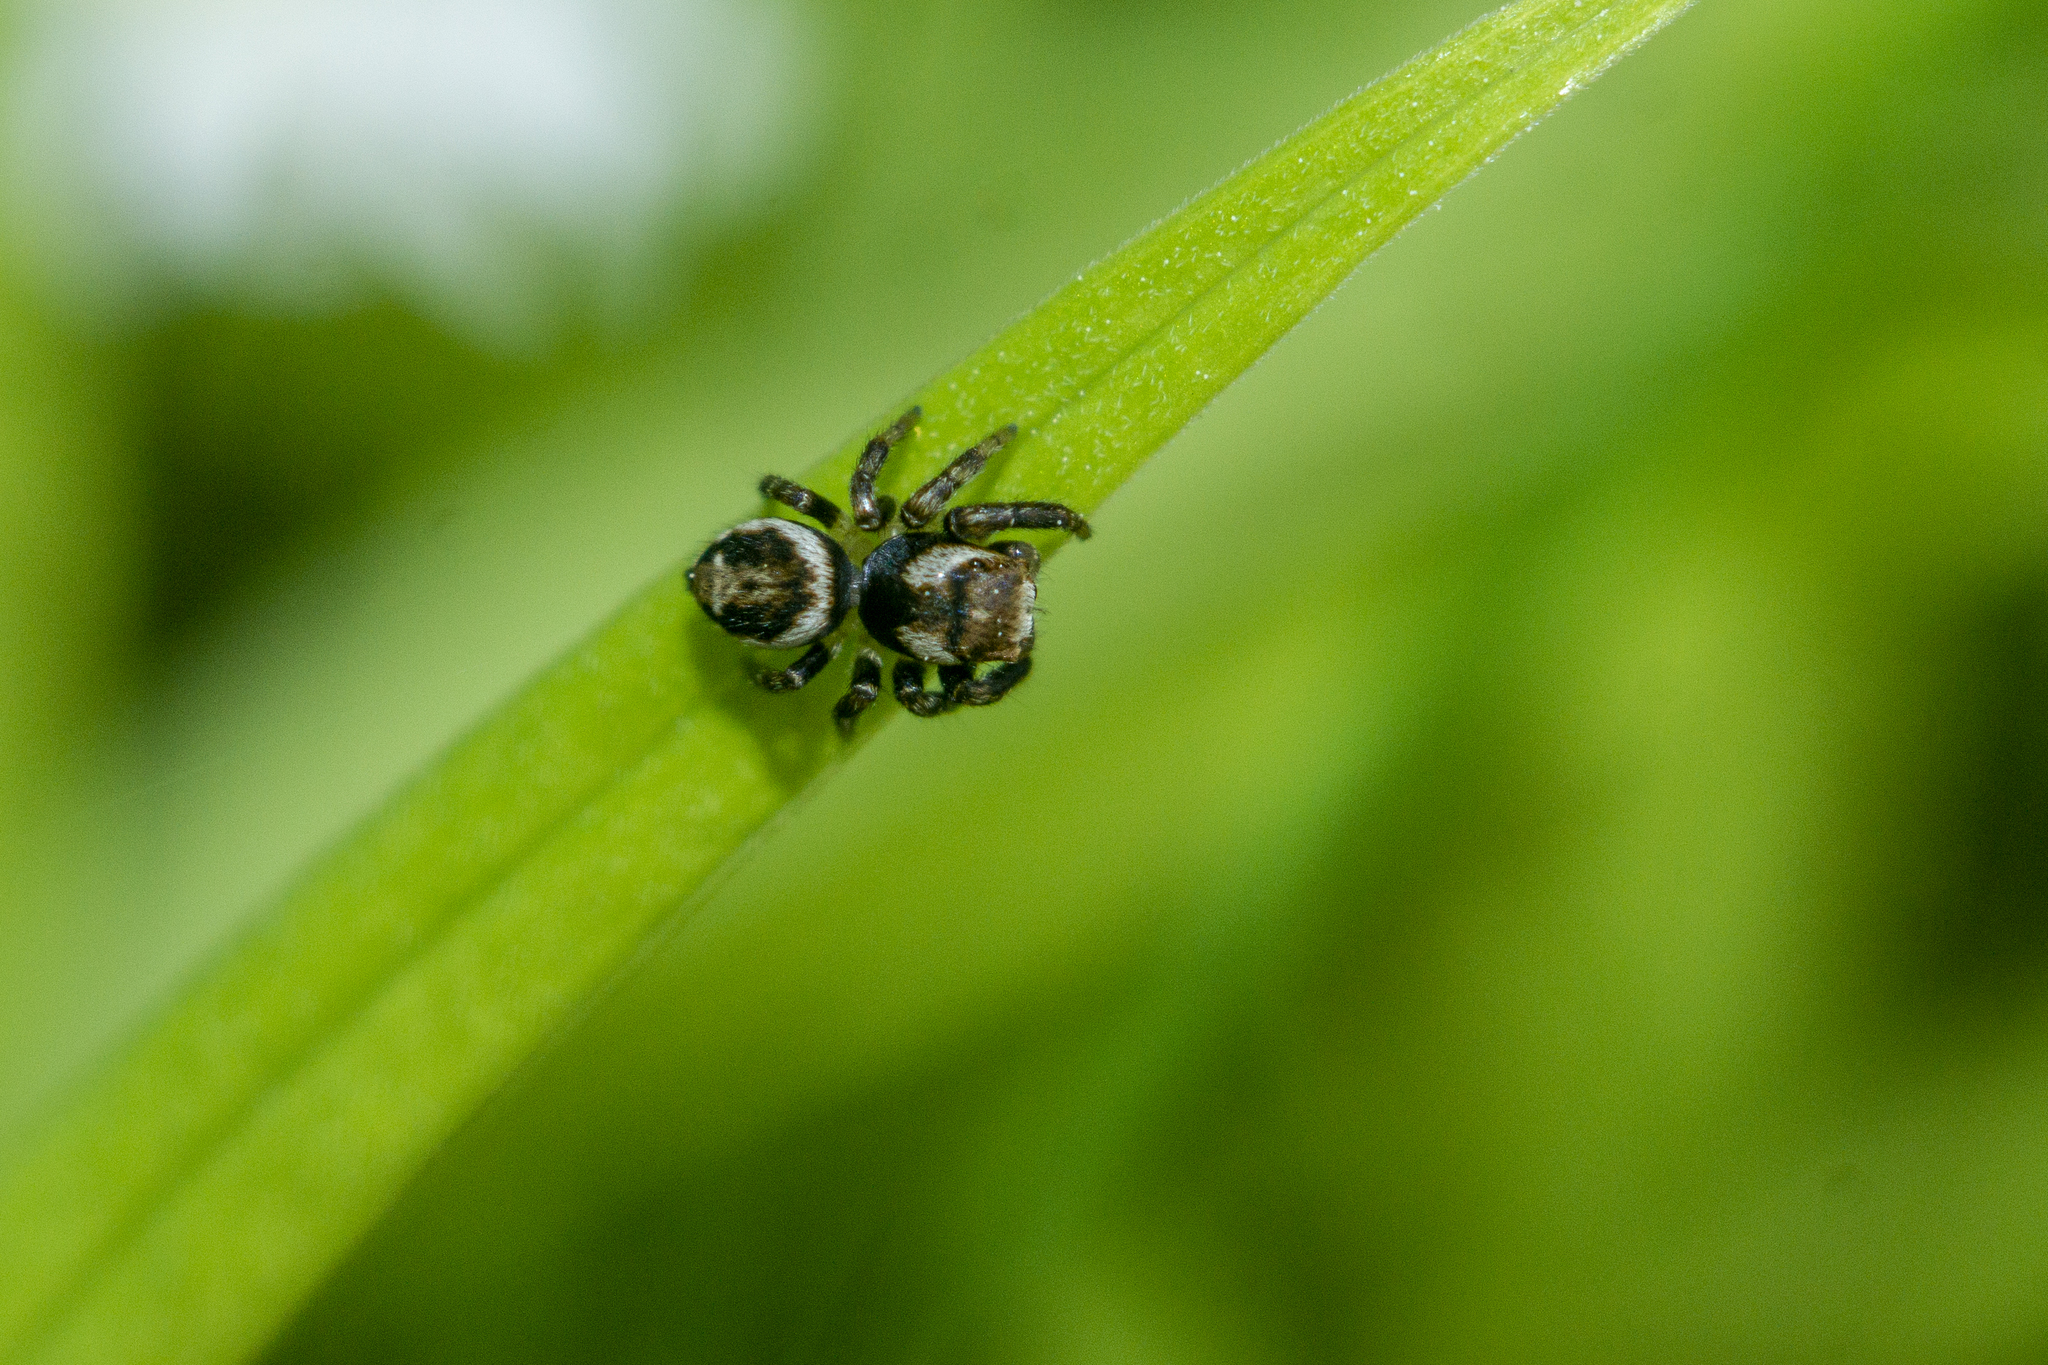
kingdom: Animalia
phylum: Arthropoda
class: Arachnida
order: Araneae
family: Salticidae
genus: Evarcha
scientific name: Evarcha falcata
